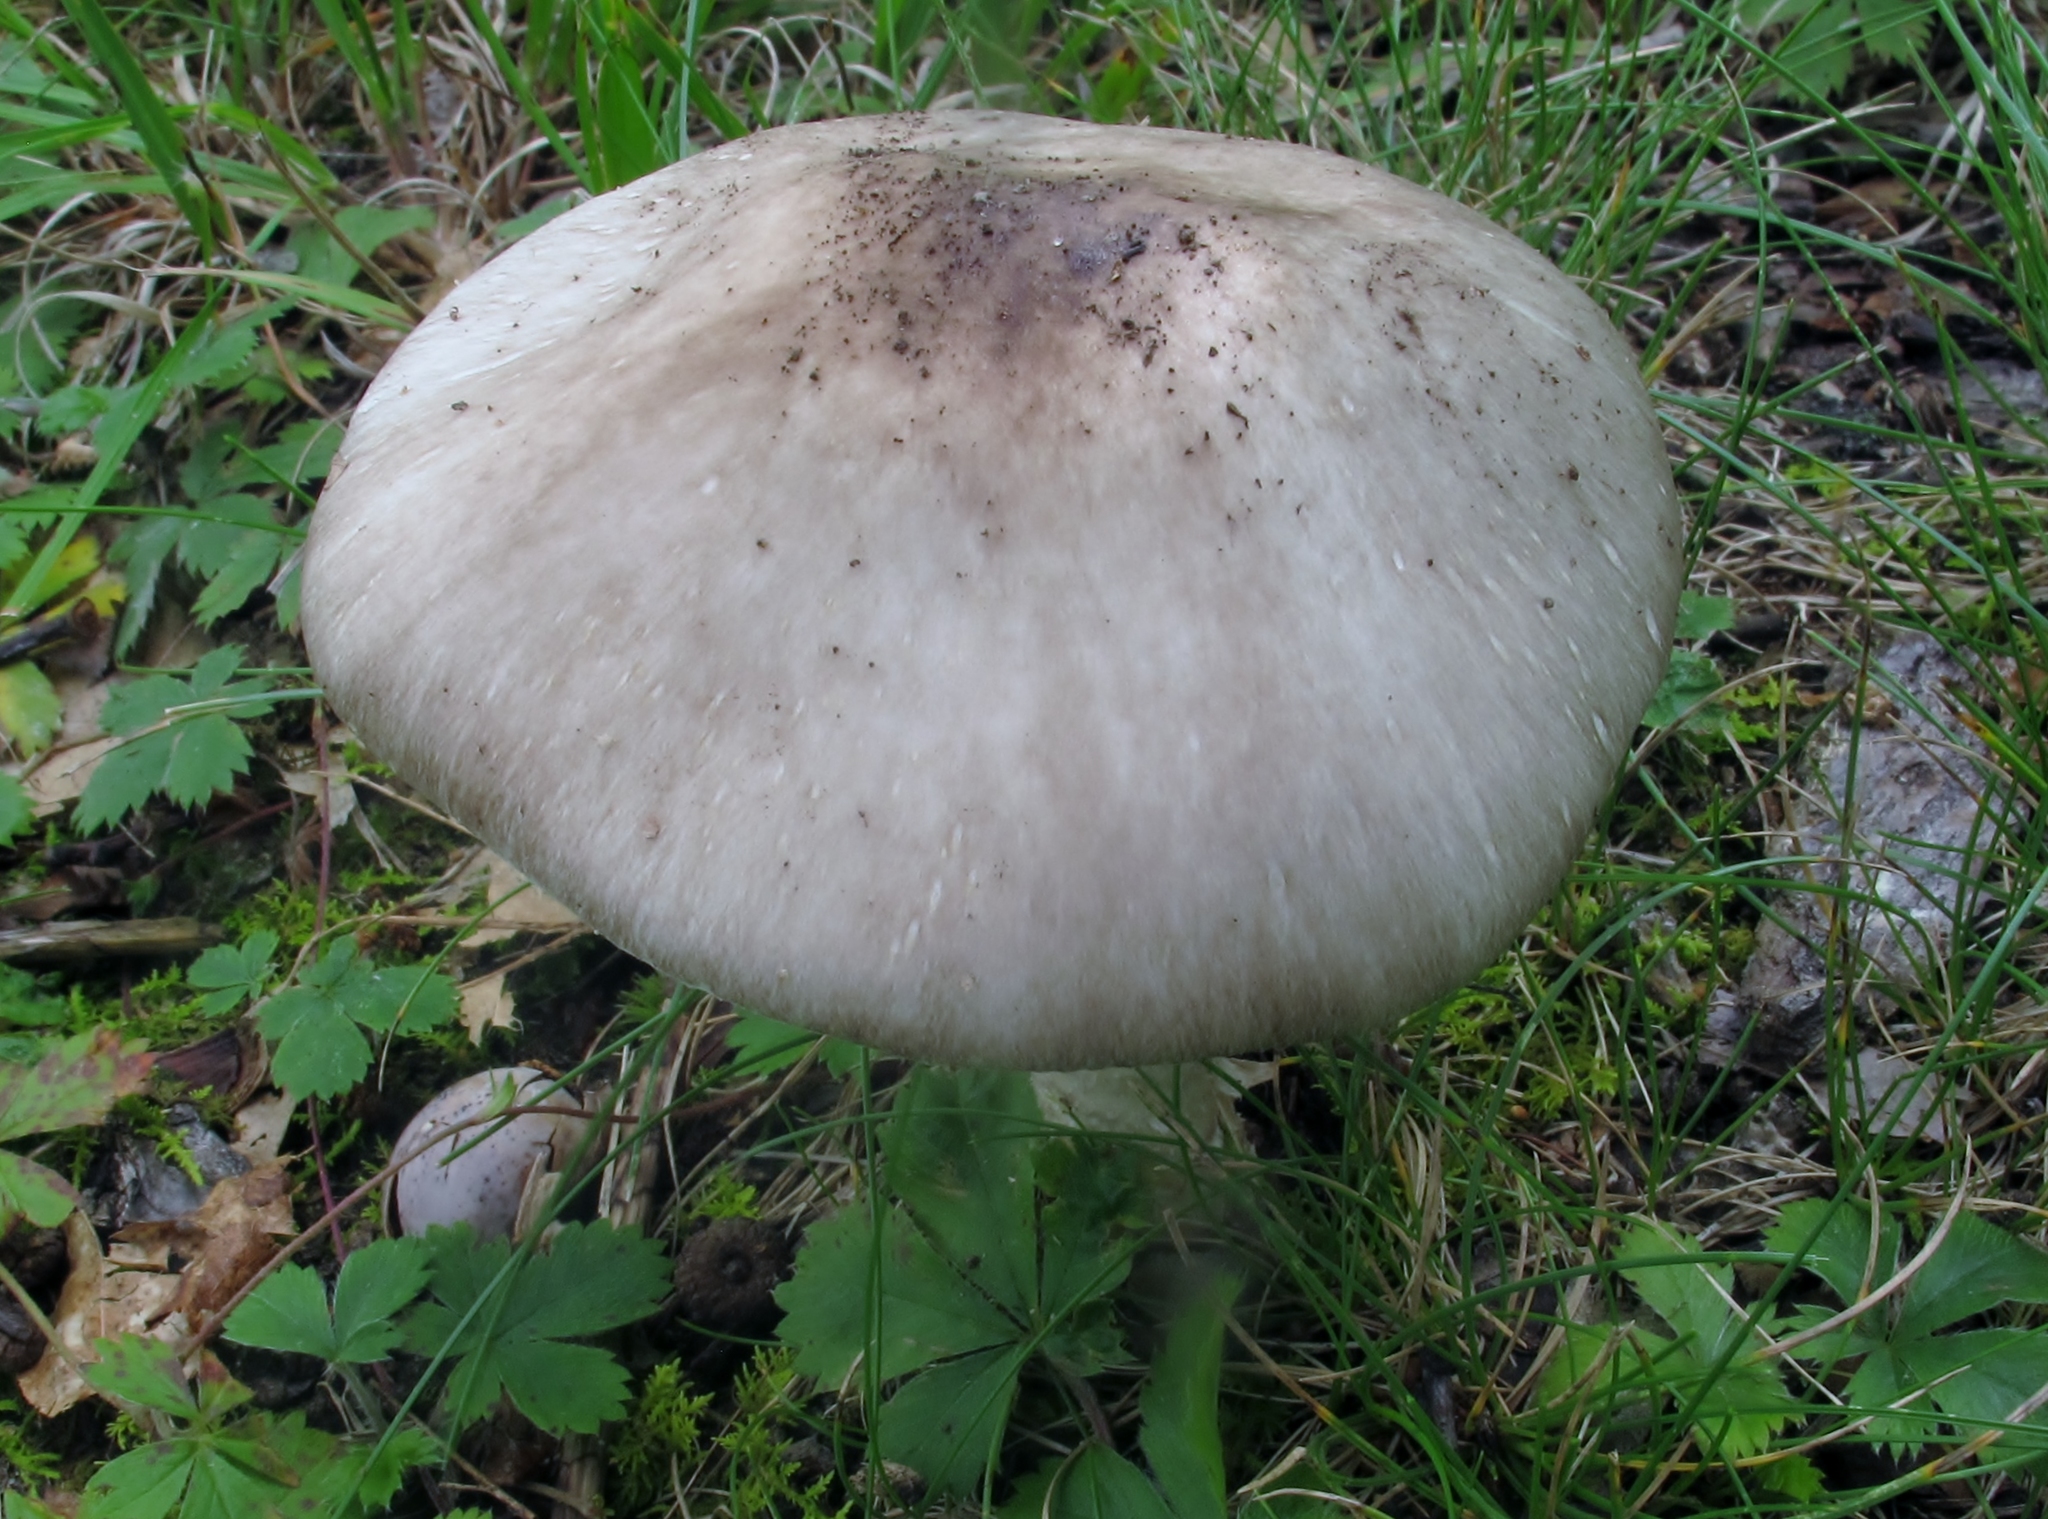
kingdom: Fungi
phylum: Basidiomycota
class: Agaricomycetes
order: Agaricales
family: Amanitaceae
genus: Amanita
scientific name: Amanita submaculata
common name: Ball gown amanita
